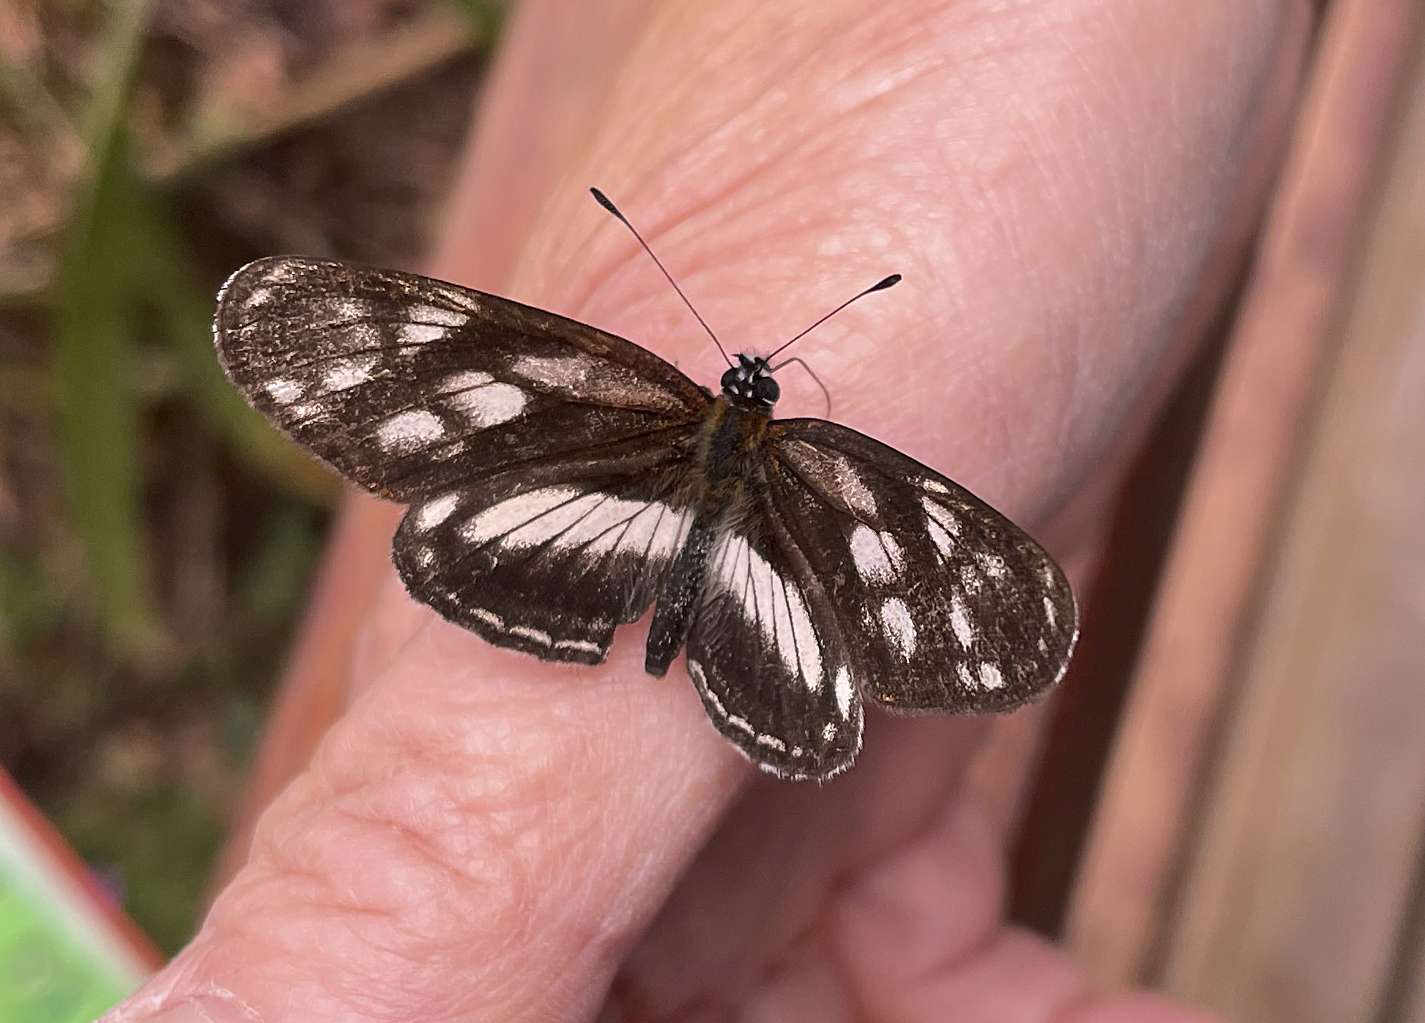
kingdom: Animalia
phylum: Arthropoda
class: Insecta
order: Lepidoptera
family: Nymphalidae
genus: Eresia
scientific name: Eresia clio
